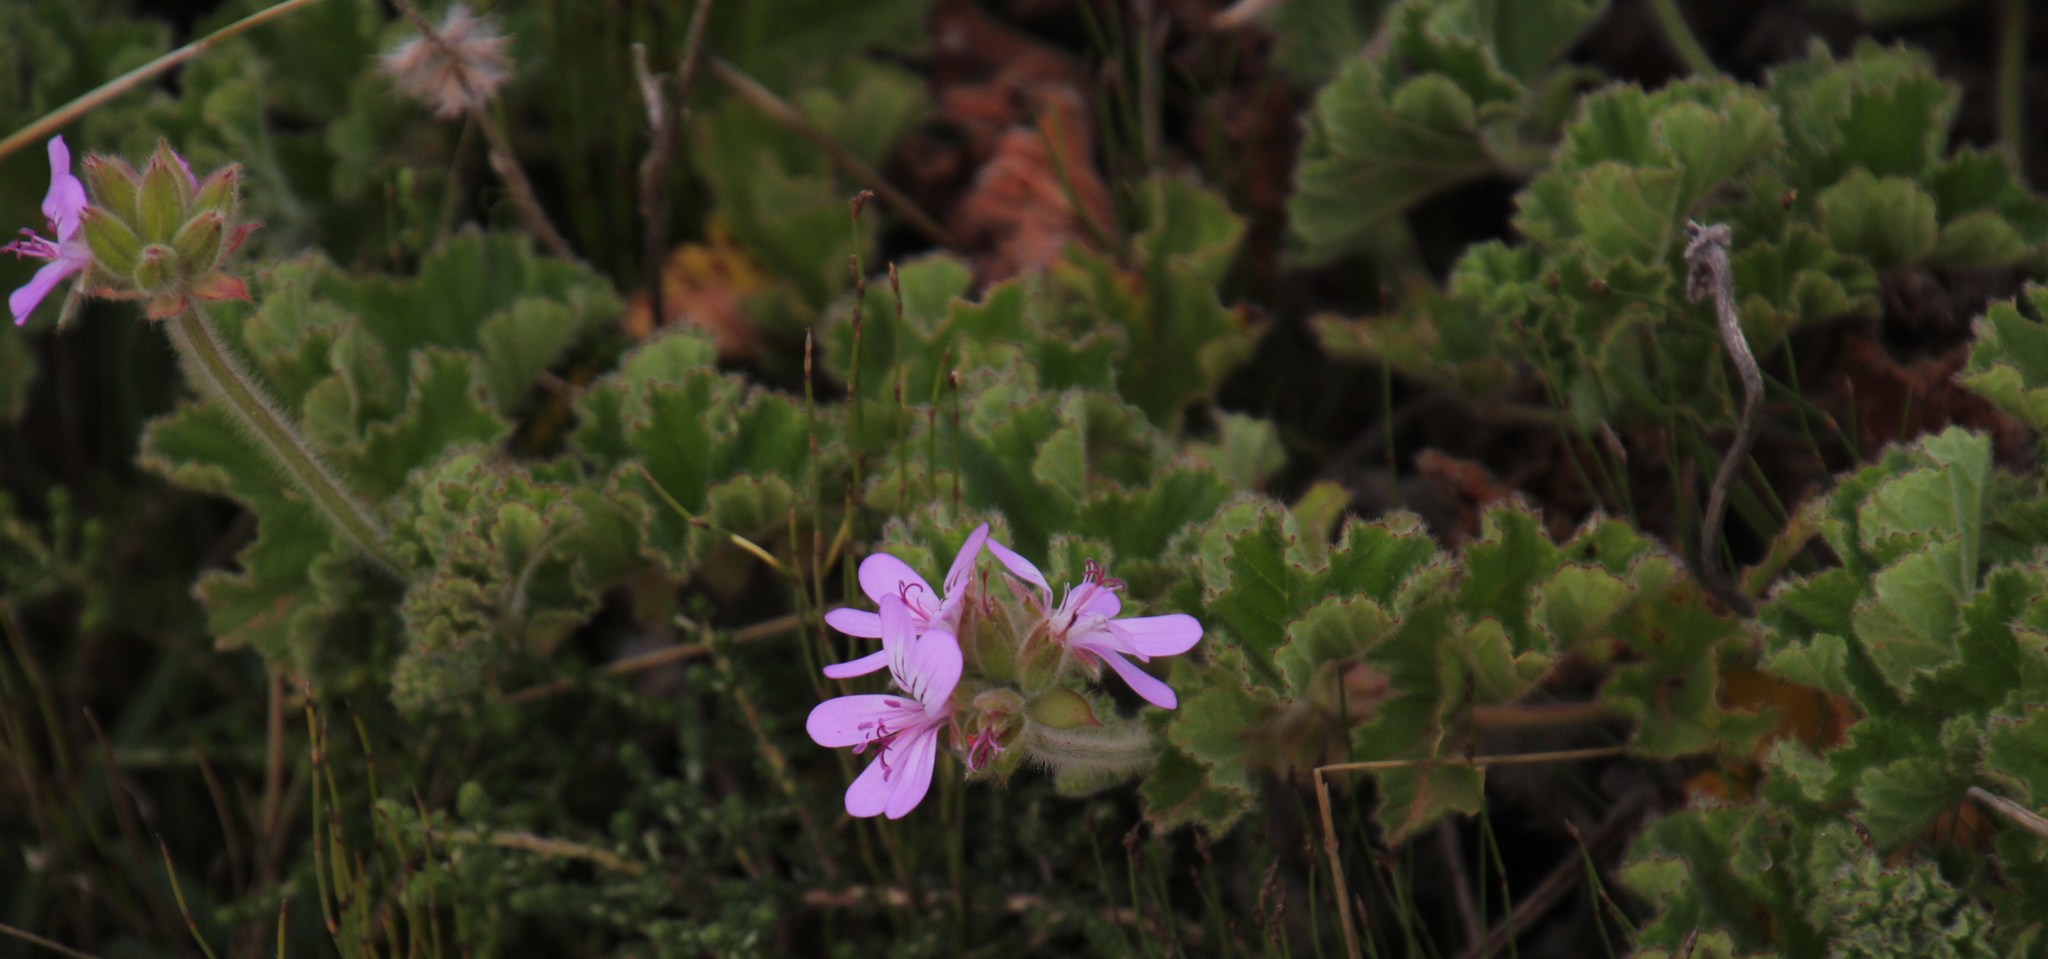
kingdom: Plantae
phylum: Tracheophyta
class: Magnoliopsida
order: Geraniales
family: Geraniaceae
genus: Pelargonium
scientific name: Pelargonium capitatum
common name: Rose scented geranium
